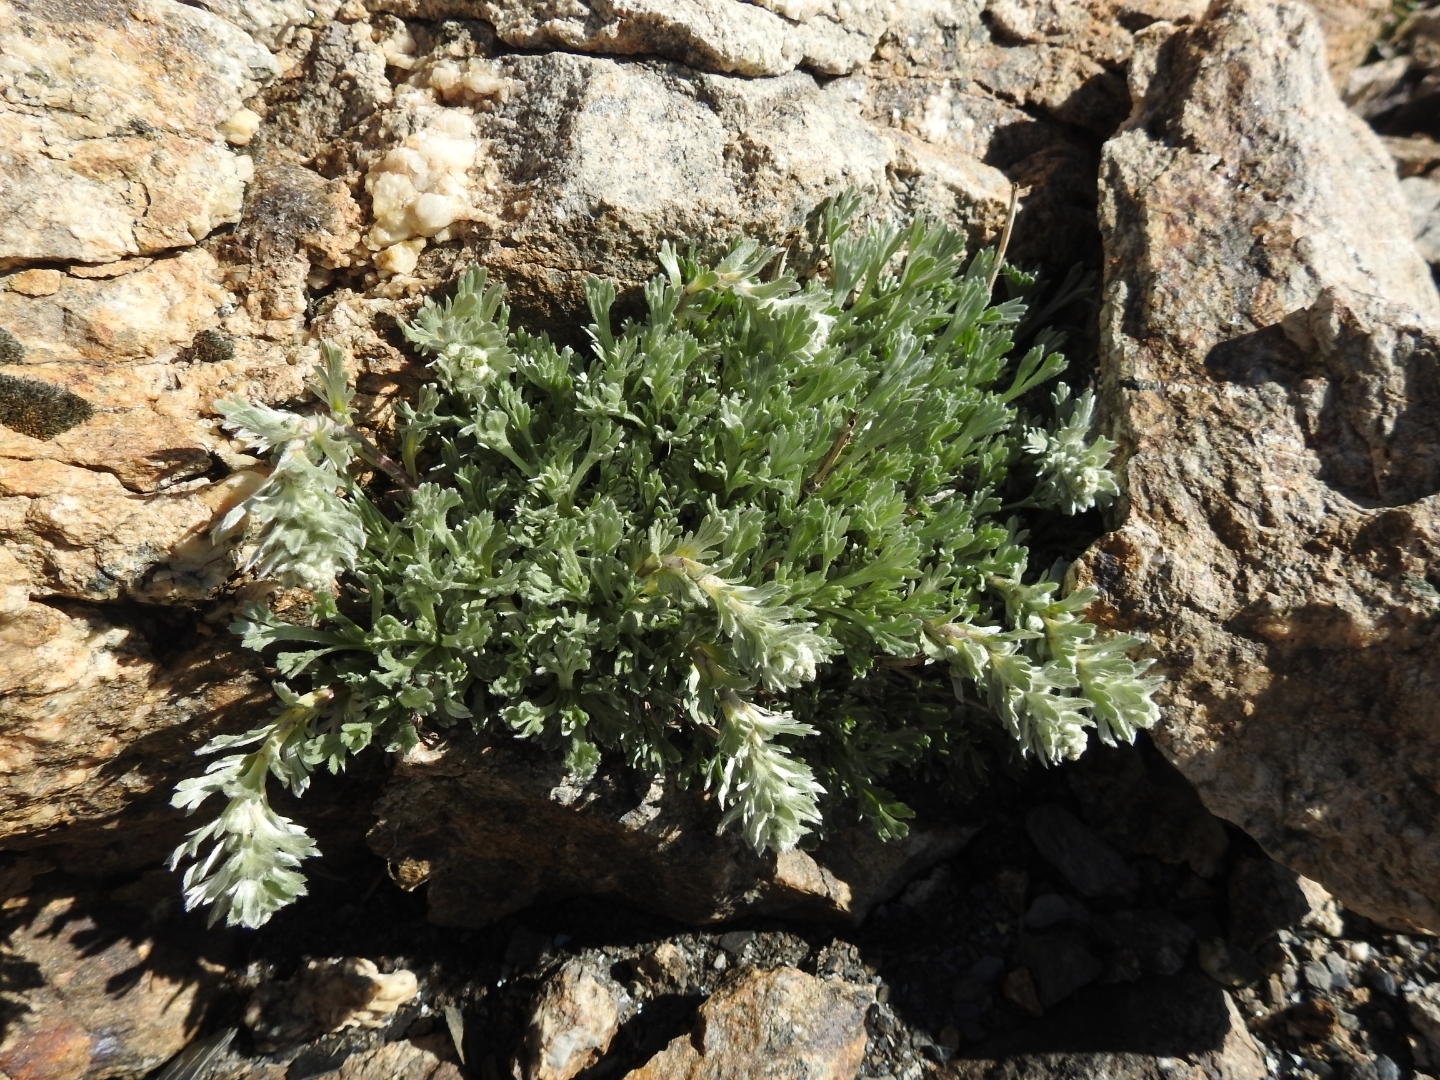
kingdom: Plantae
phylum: Tracheophyta
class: Magnoliopsida
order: Asterales
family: Asteraceae
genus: Artemisia
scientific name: Artemisia genipi
